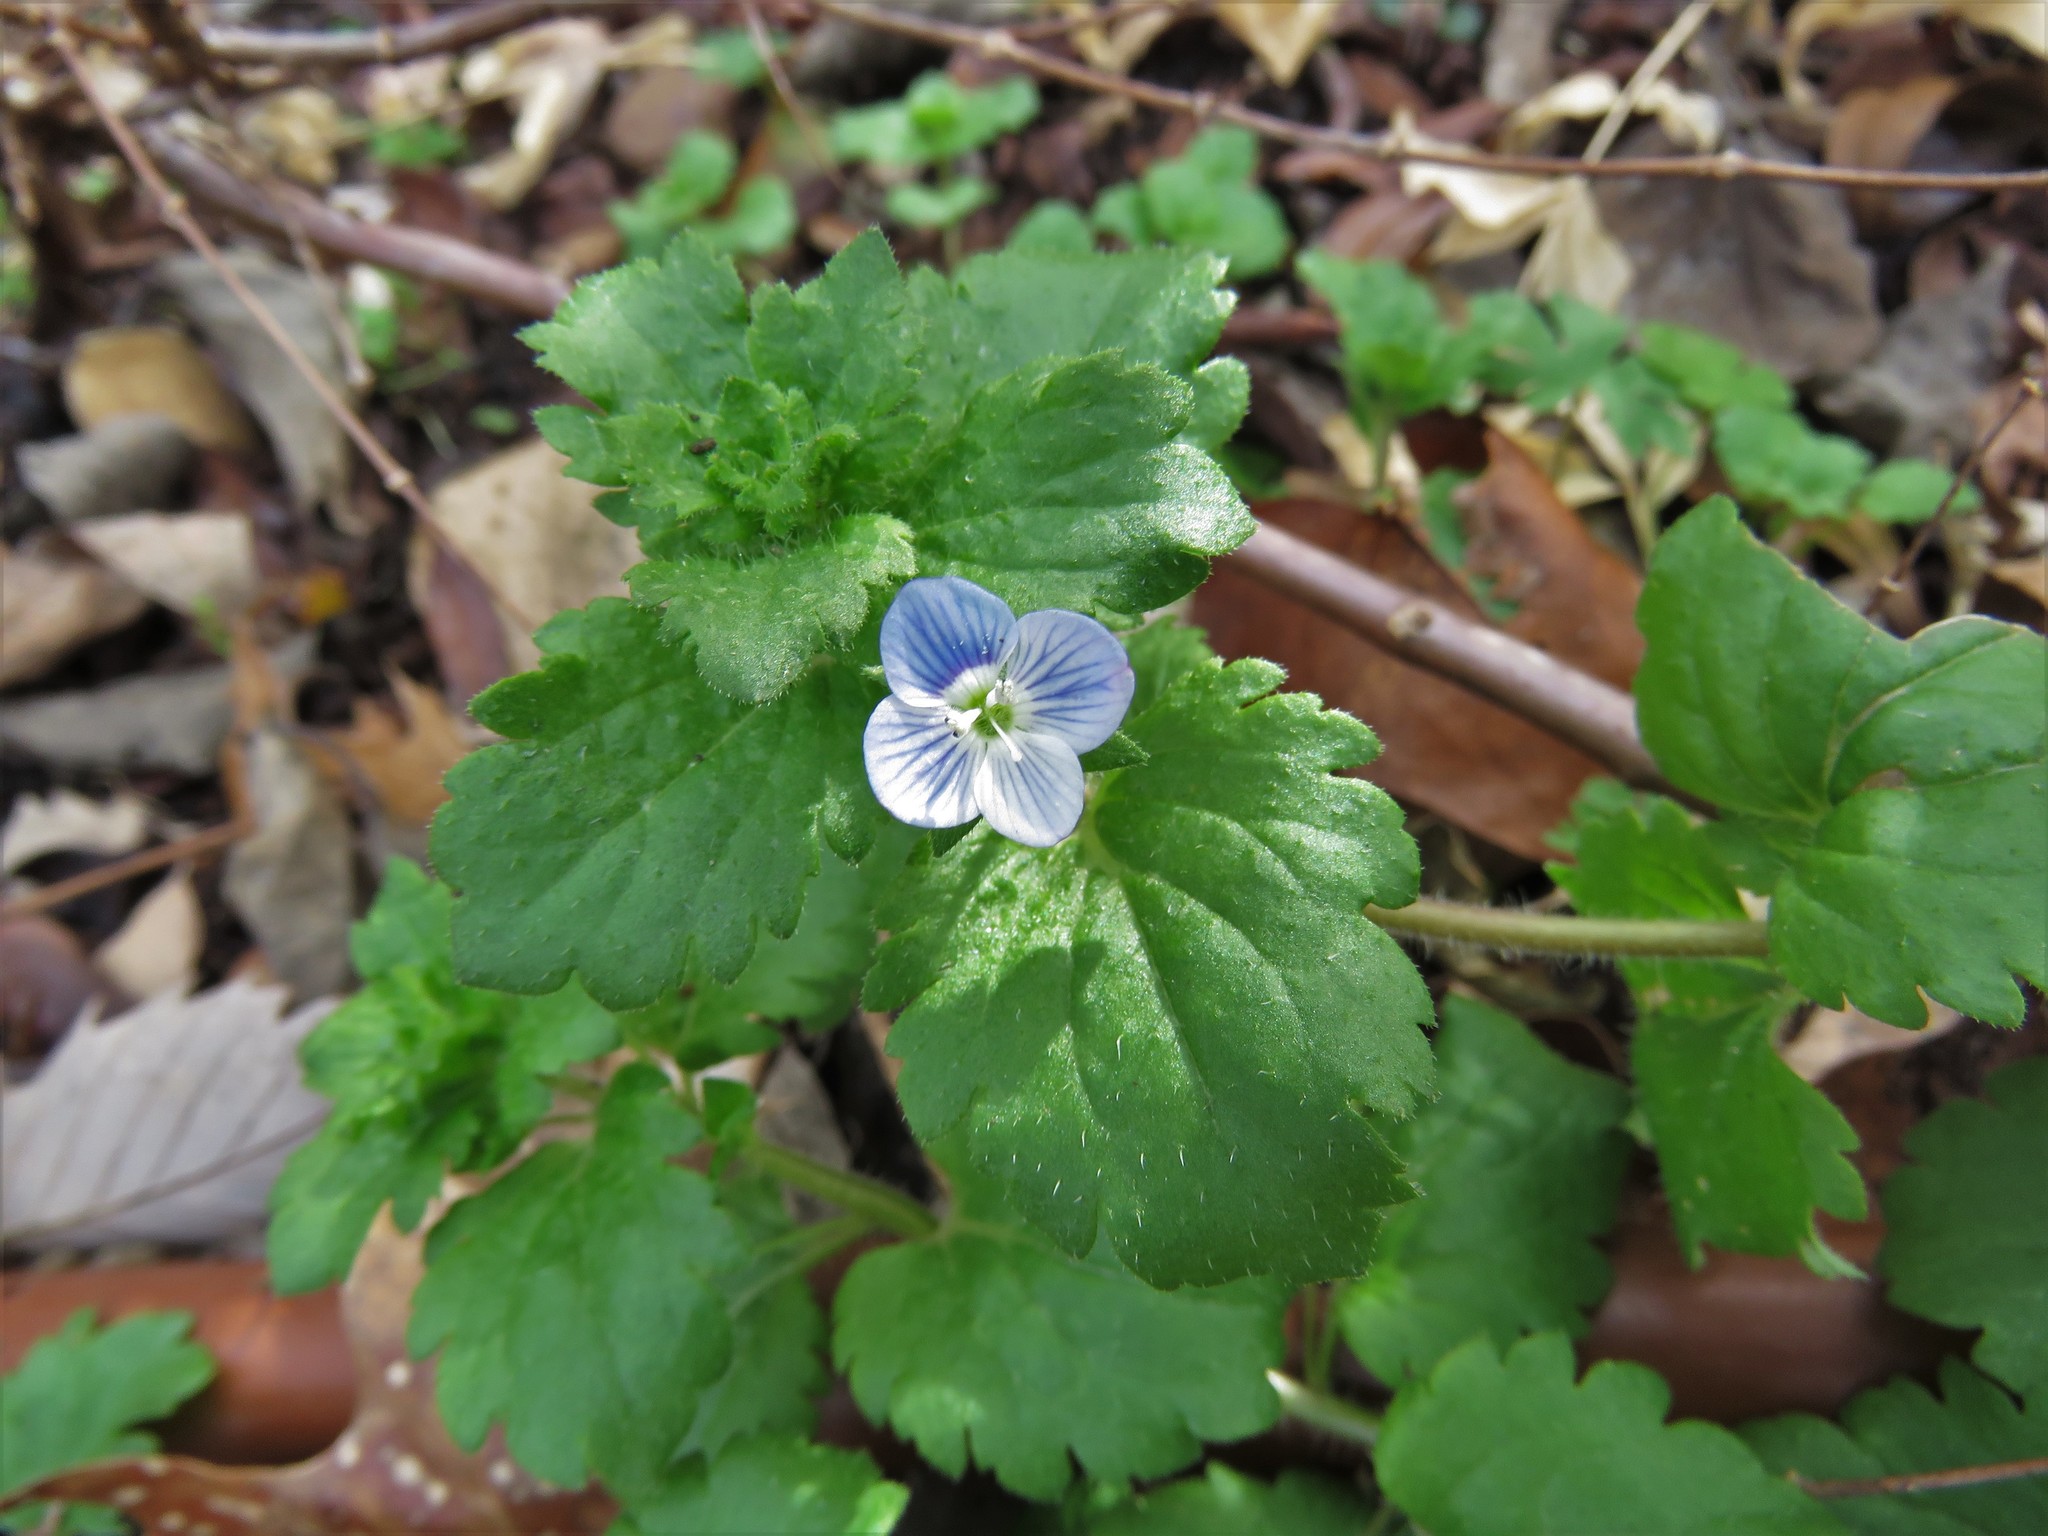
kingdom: Plantae
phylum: Tracheophyta
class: Magnoliopsida
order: Lamiales
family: Plantaginaceae
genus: Veronica
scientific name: Veronica persica
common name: Common field-speedwell
